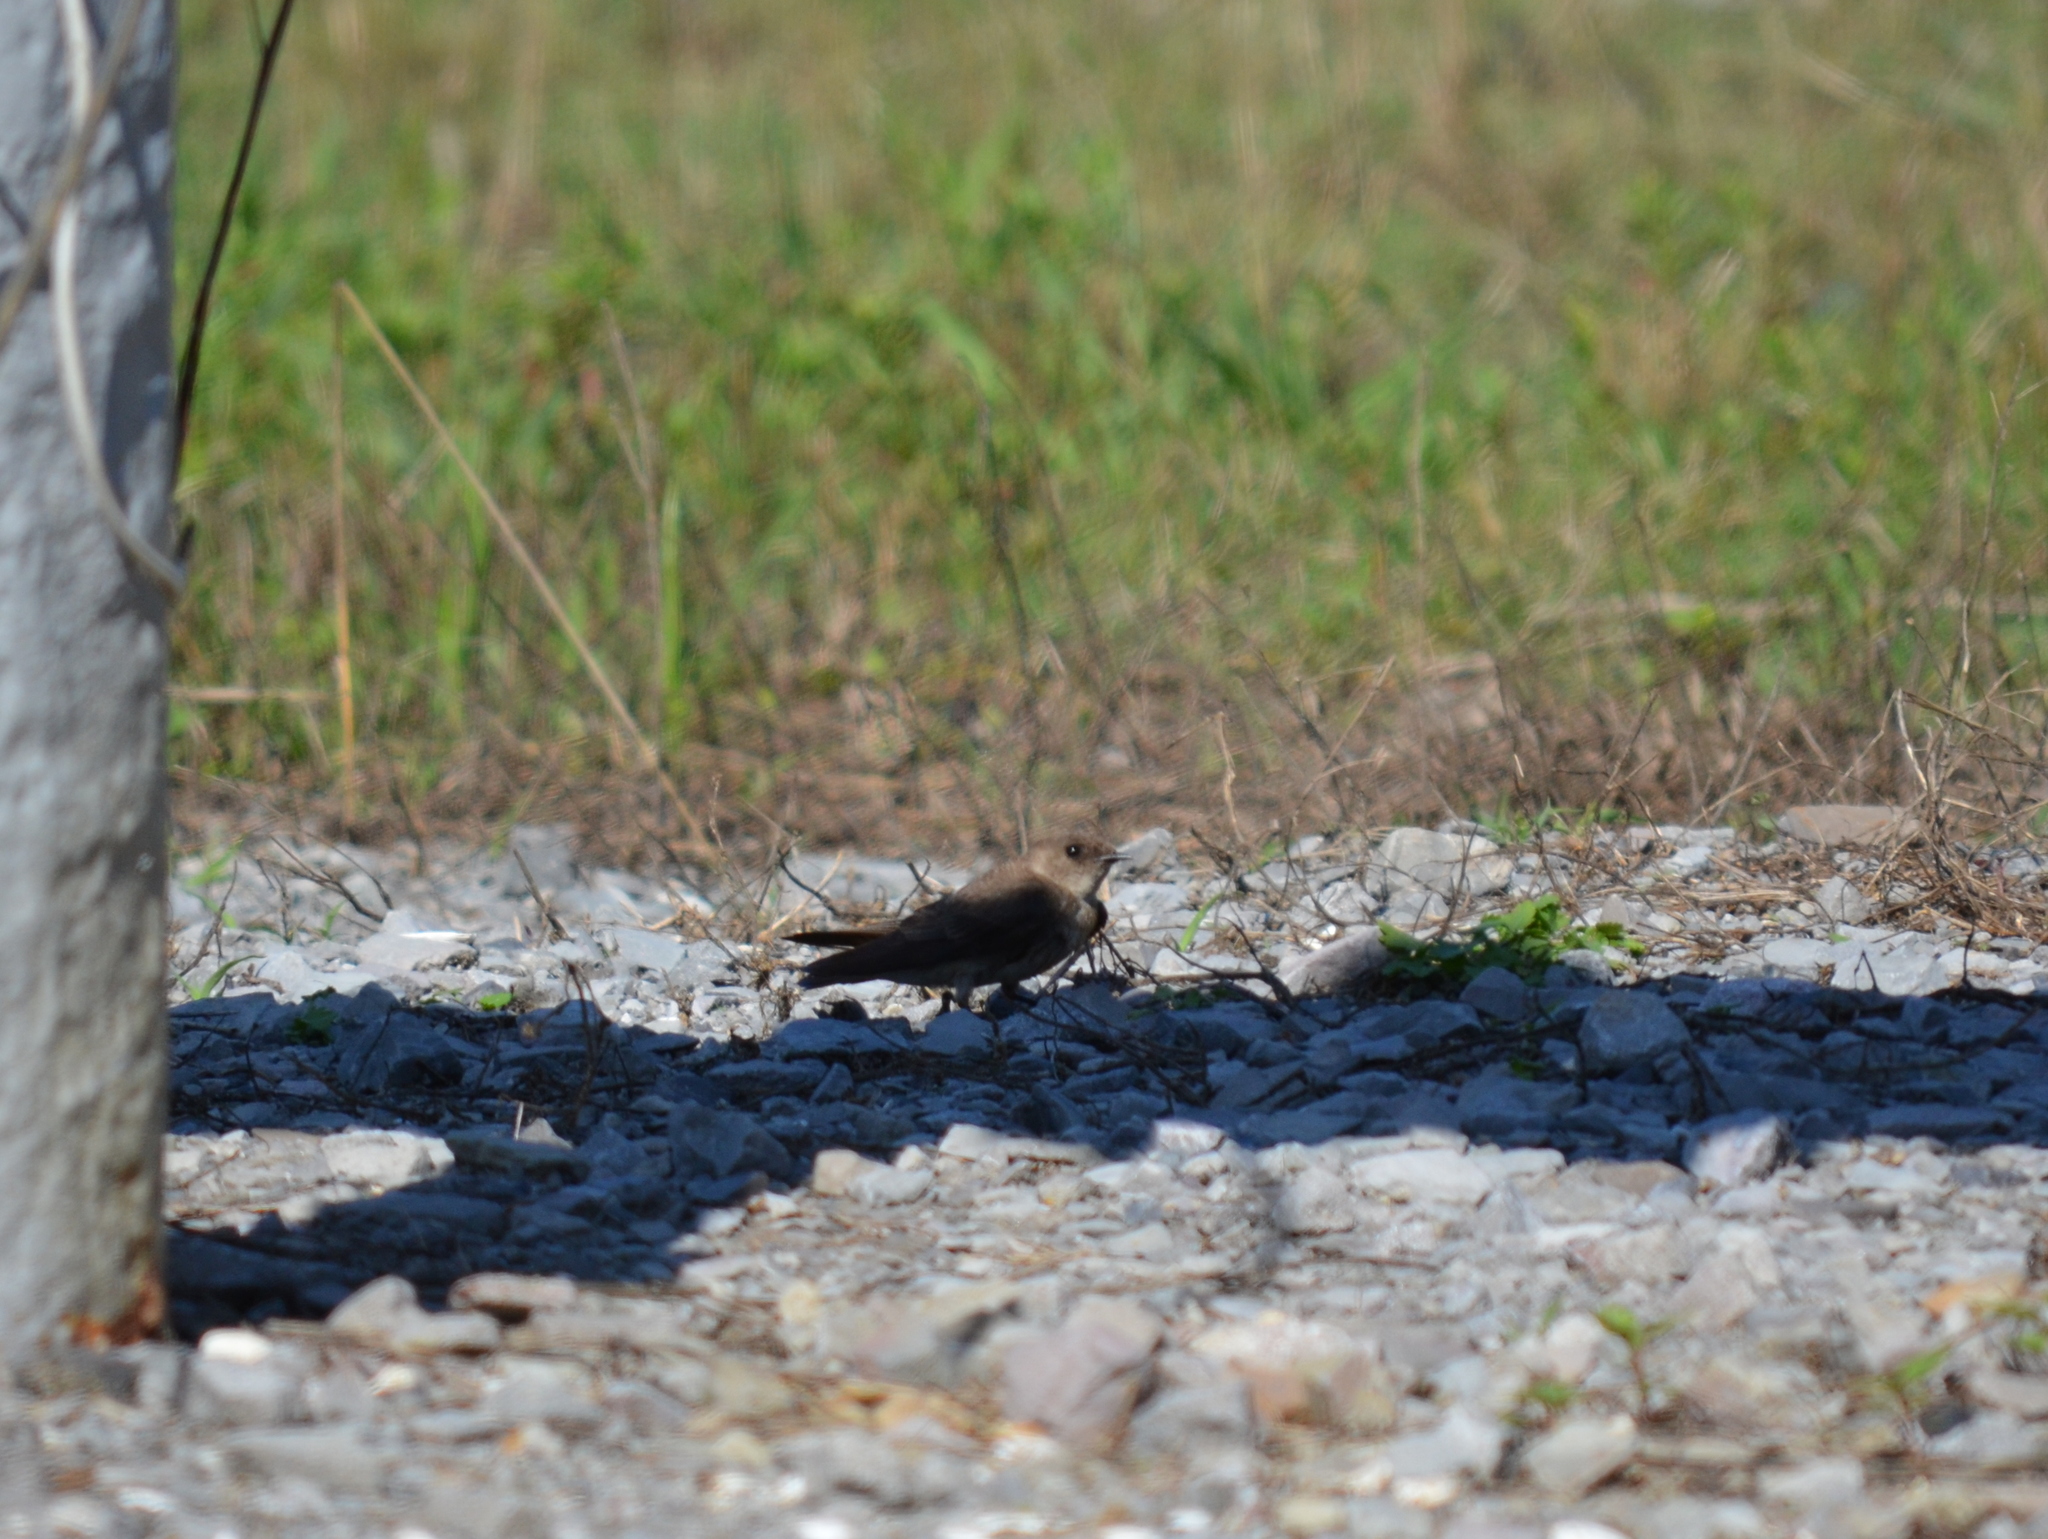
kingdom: Animalia
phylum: Chordata
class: Aves
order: Passeriformes
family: Hirundinidae
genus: Stelgidopteryx
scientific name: Stelgidopteryx serripennis
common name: Northern rough-winged swallow
